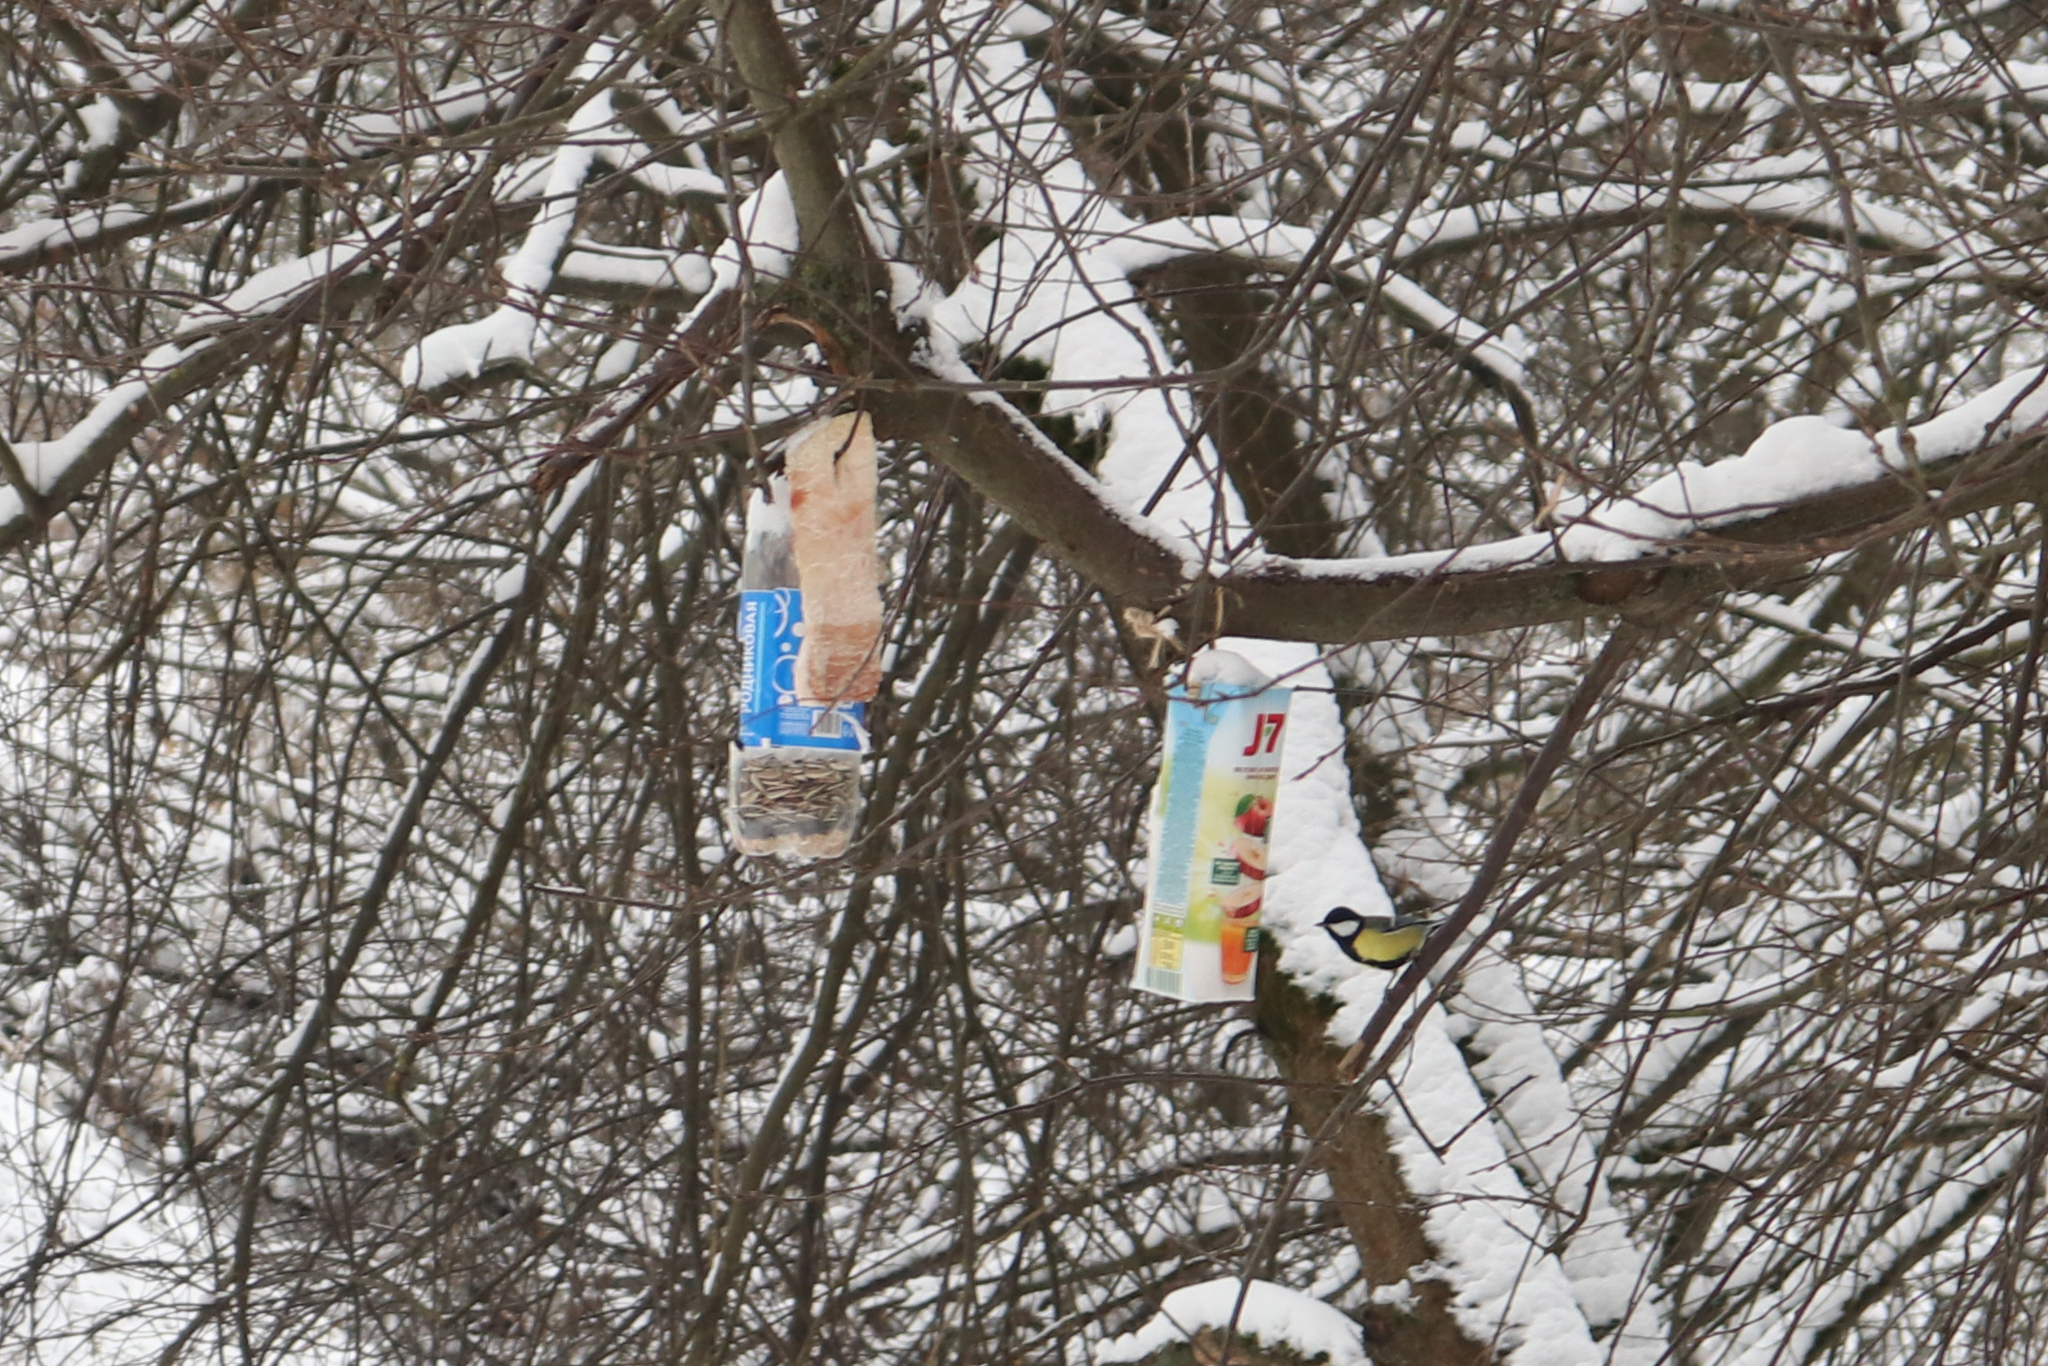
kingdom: Animalia
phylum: Chordata
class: Aves
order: Passeriformes
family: Paridae
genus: Parus
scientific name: Parus major
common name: Great tit
